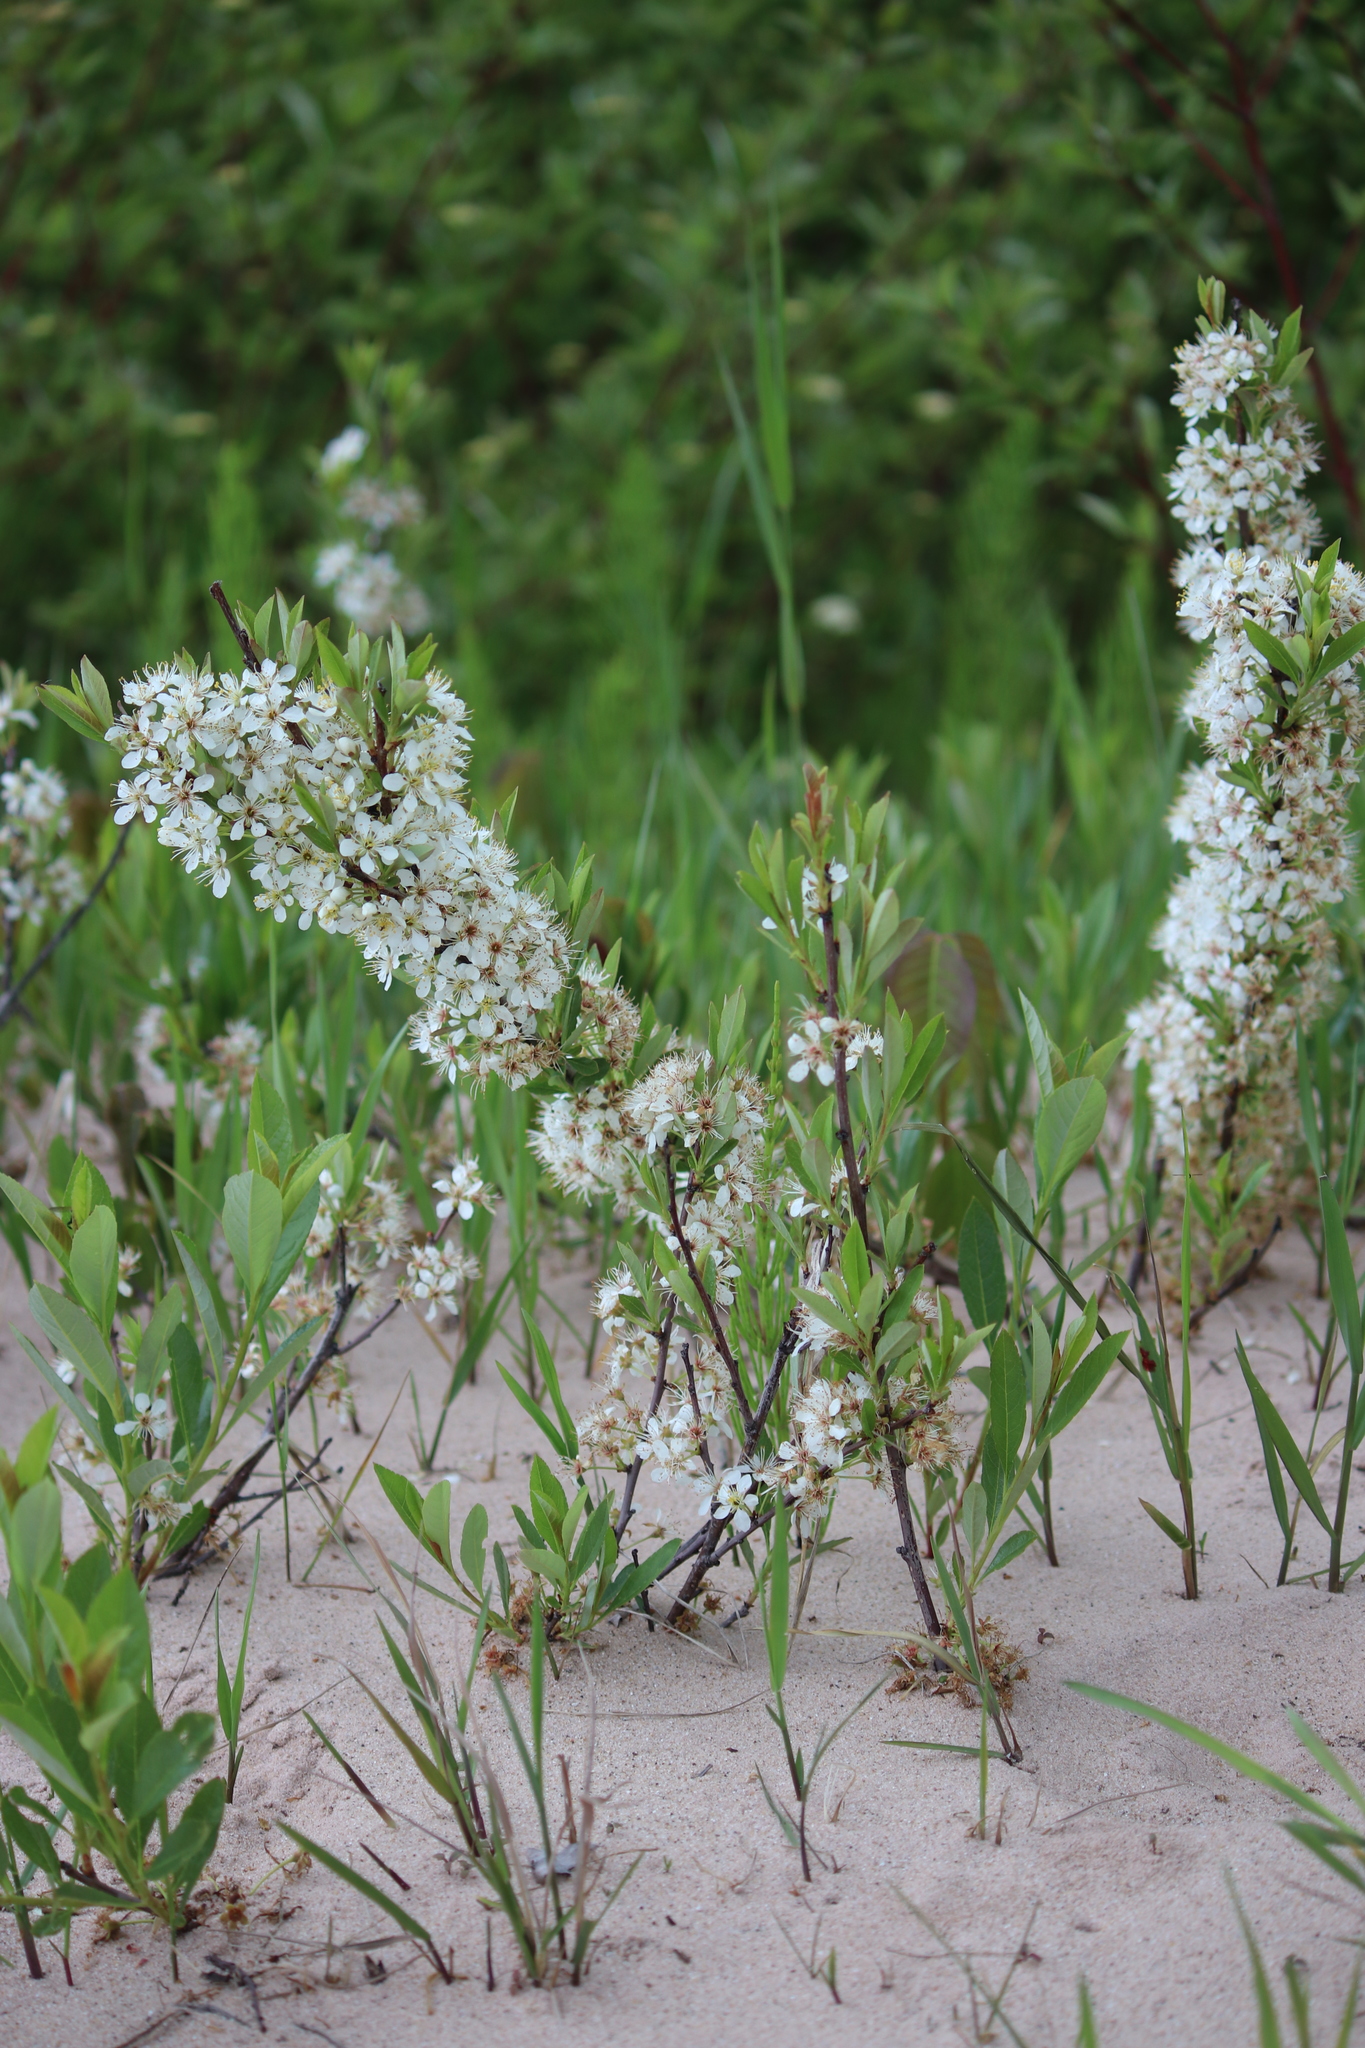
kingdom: Plantae
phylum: Tracheophyta
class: Magnoliopsida
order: Rosales
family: Rosaceae
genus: Prunus
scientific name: Prunus pumila
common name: Dwarf cherry
